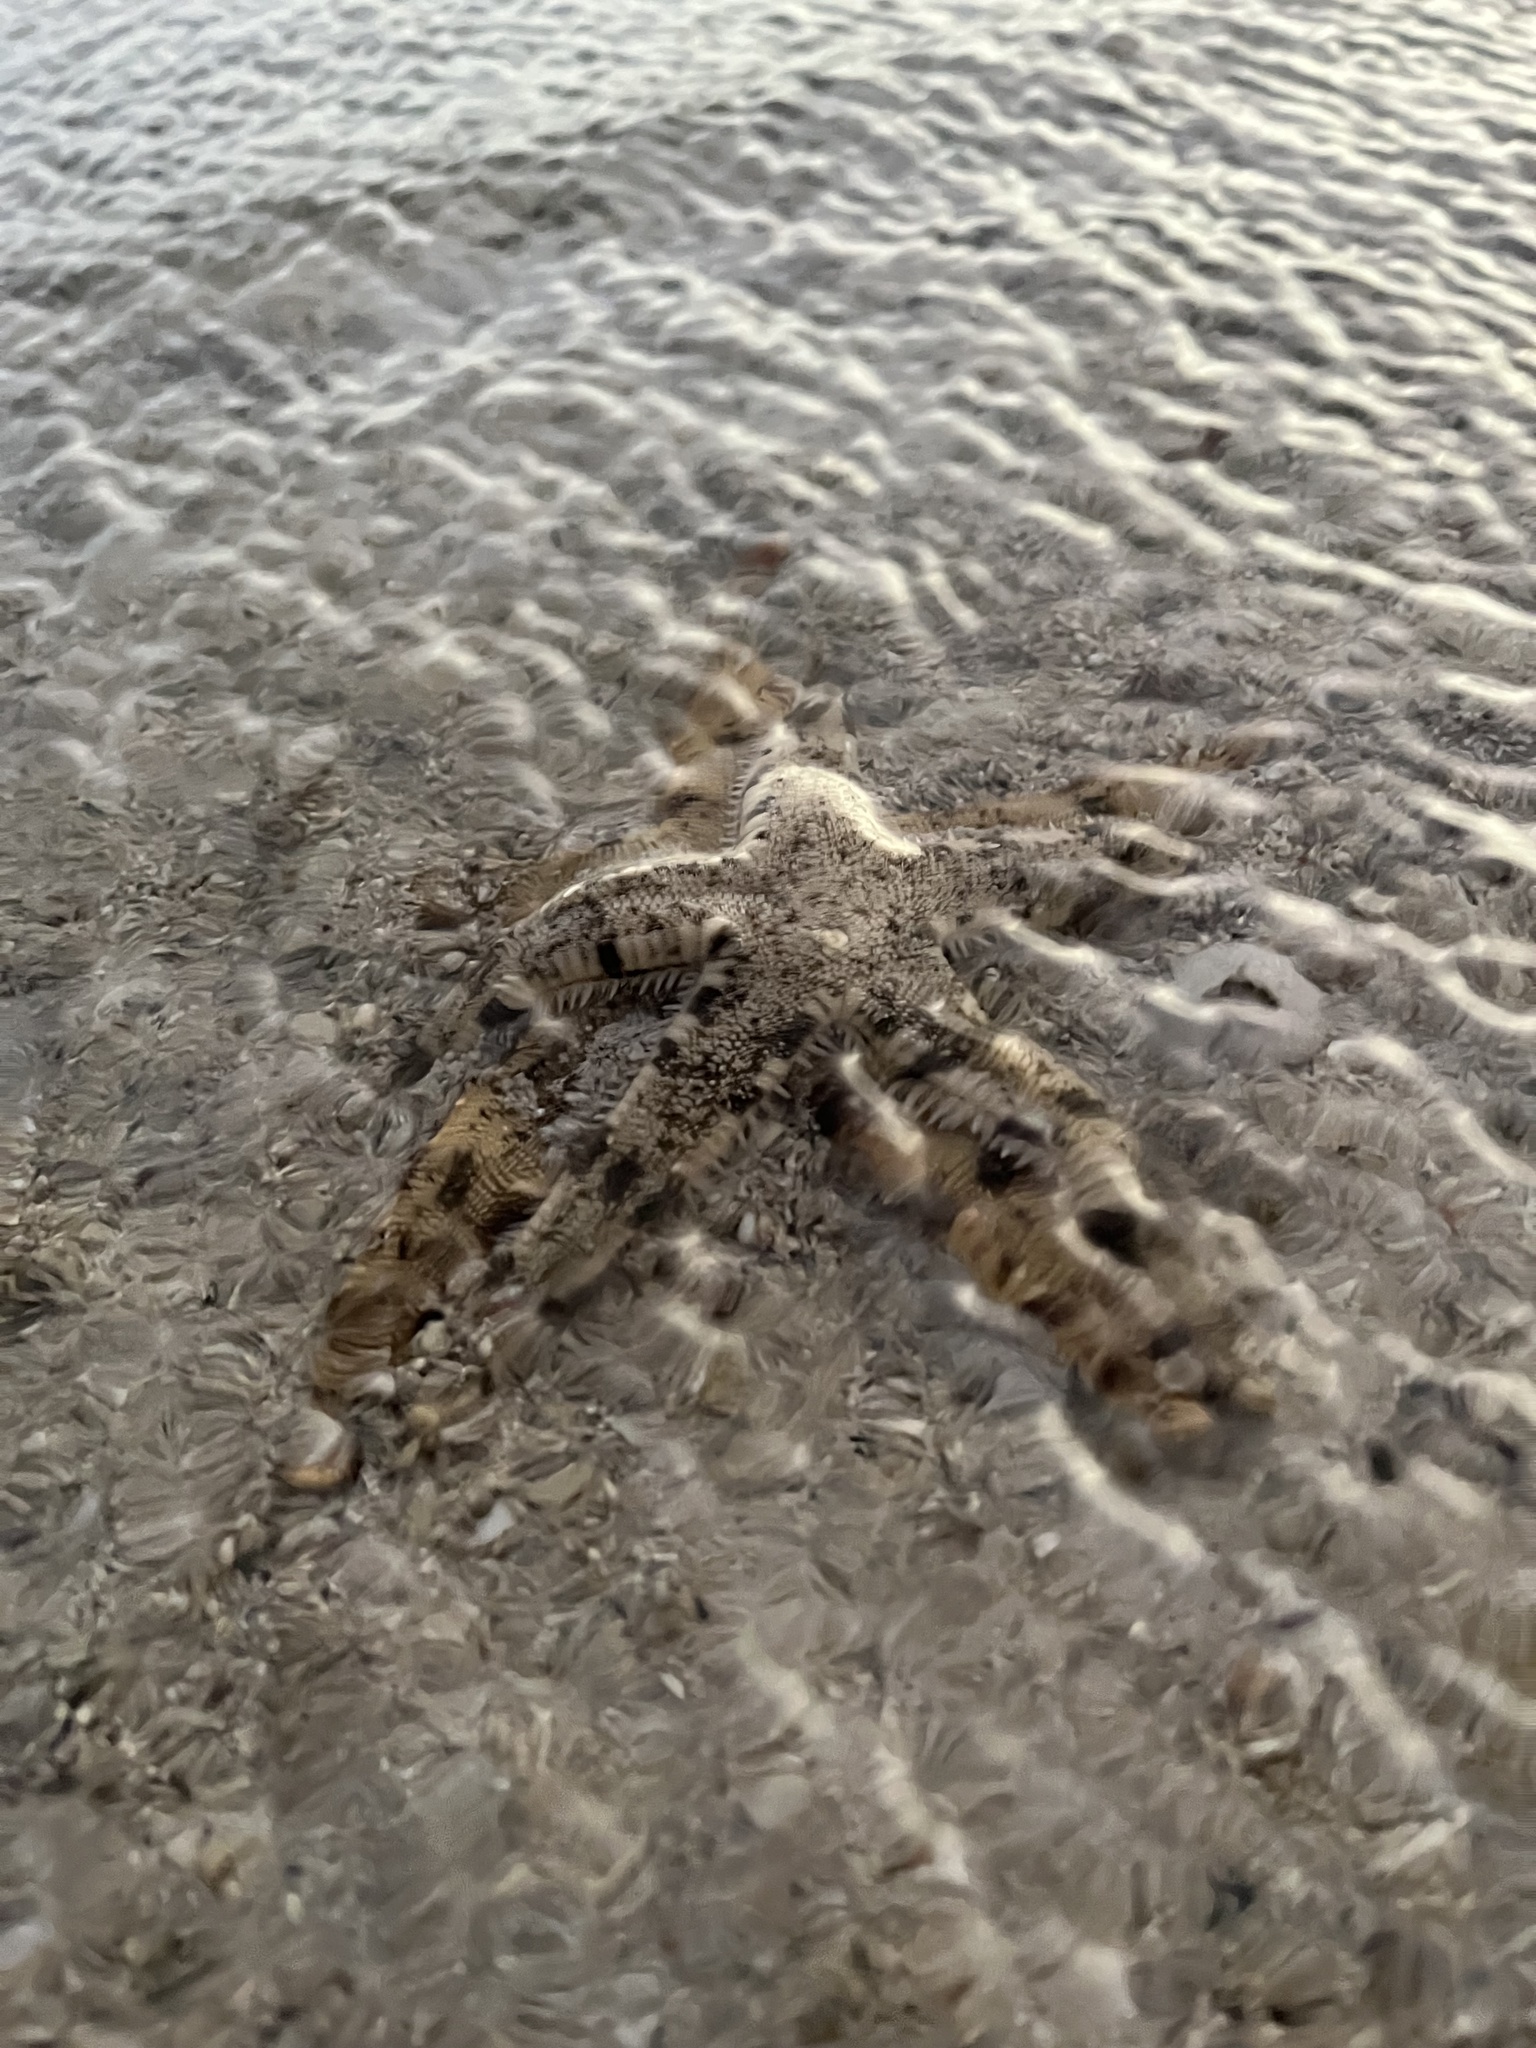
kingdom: Animalia
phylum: Echinodermata
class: Asteroidea
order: Valvatida
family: Archasteridae
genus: Archaster
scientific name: Archaster typicus
